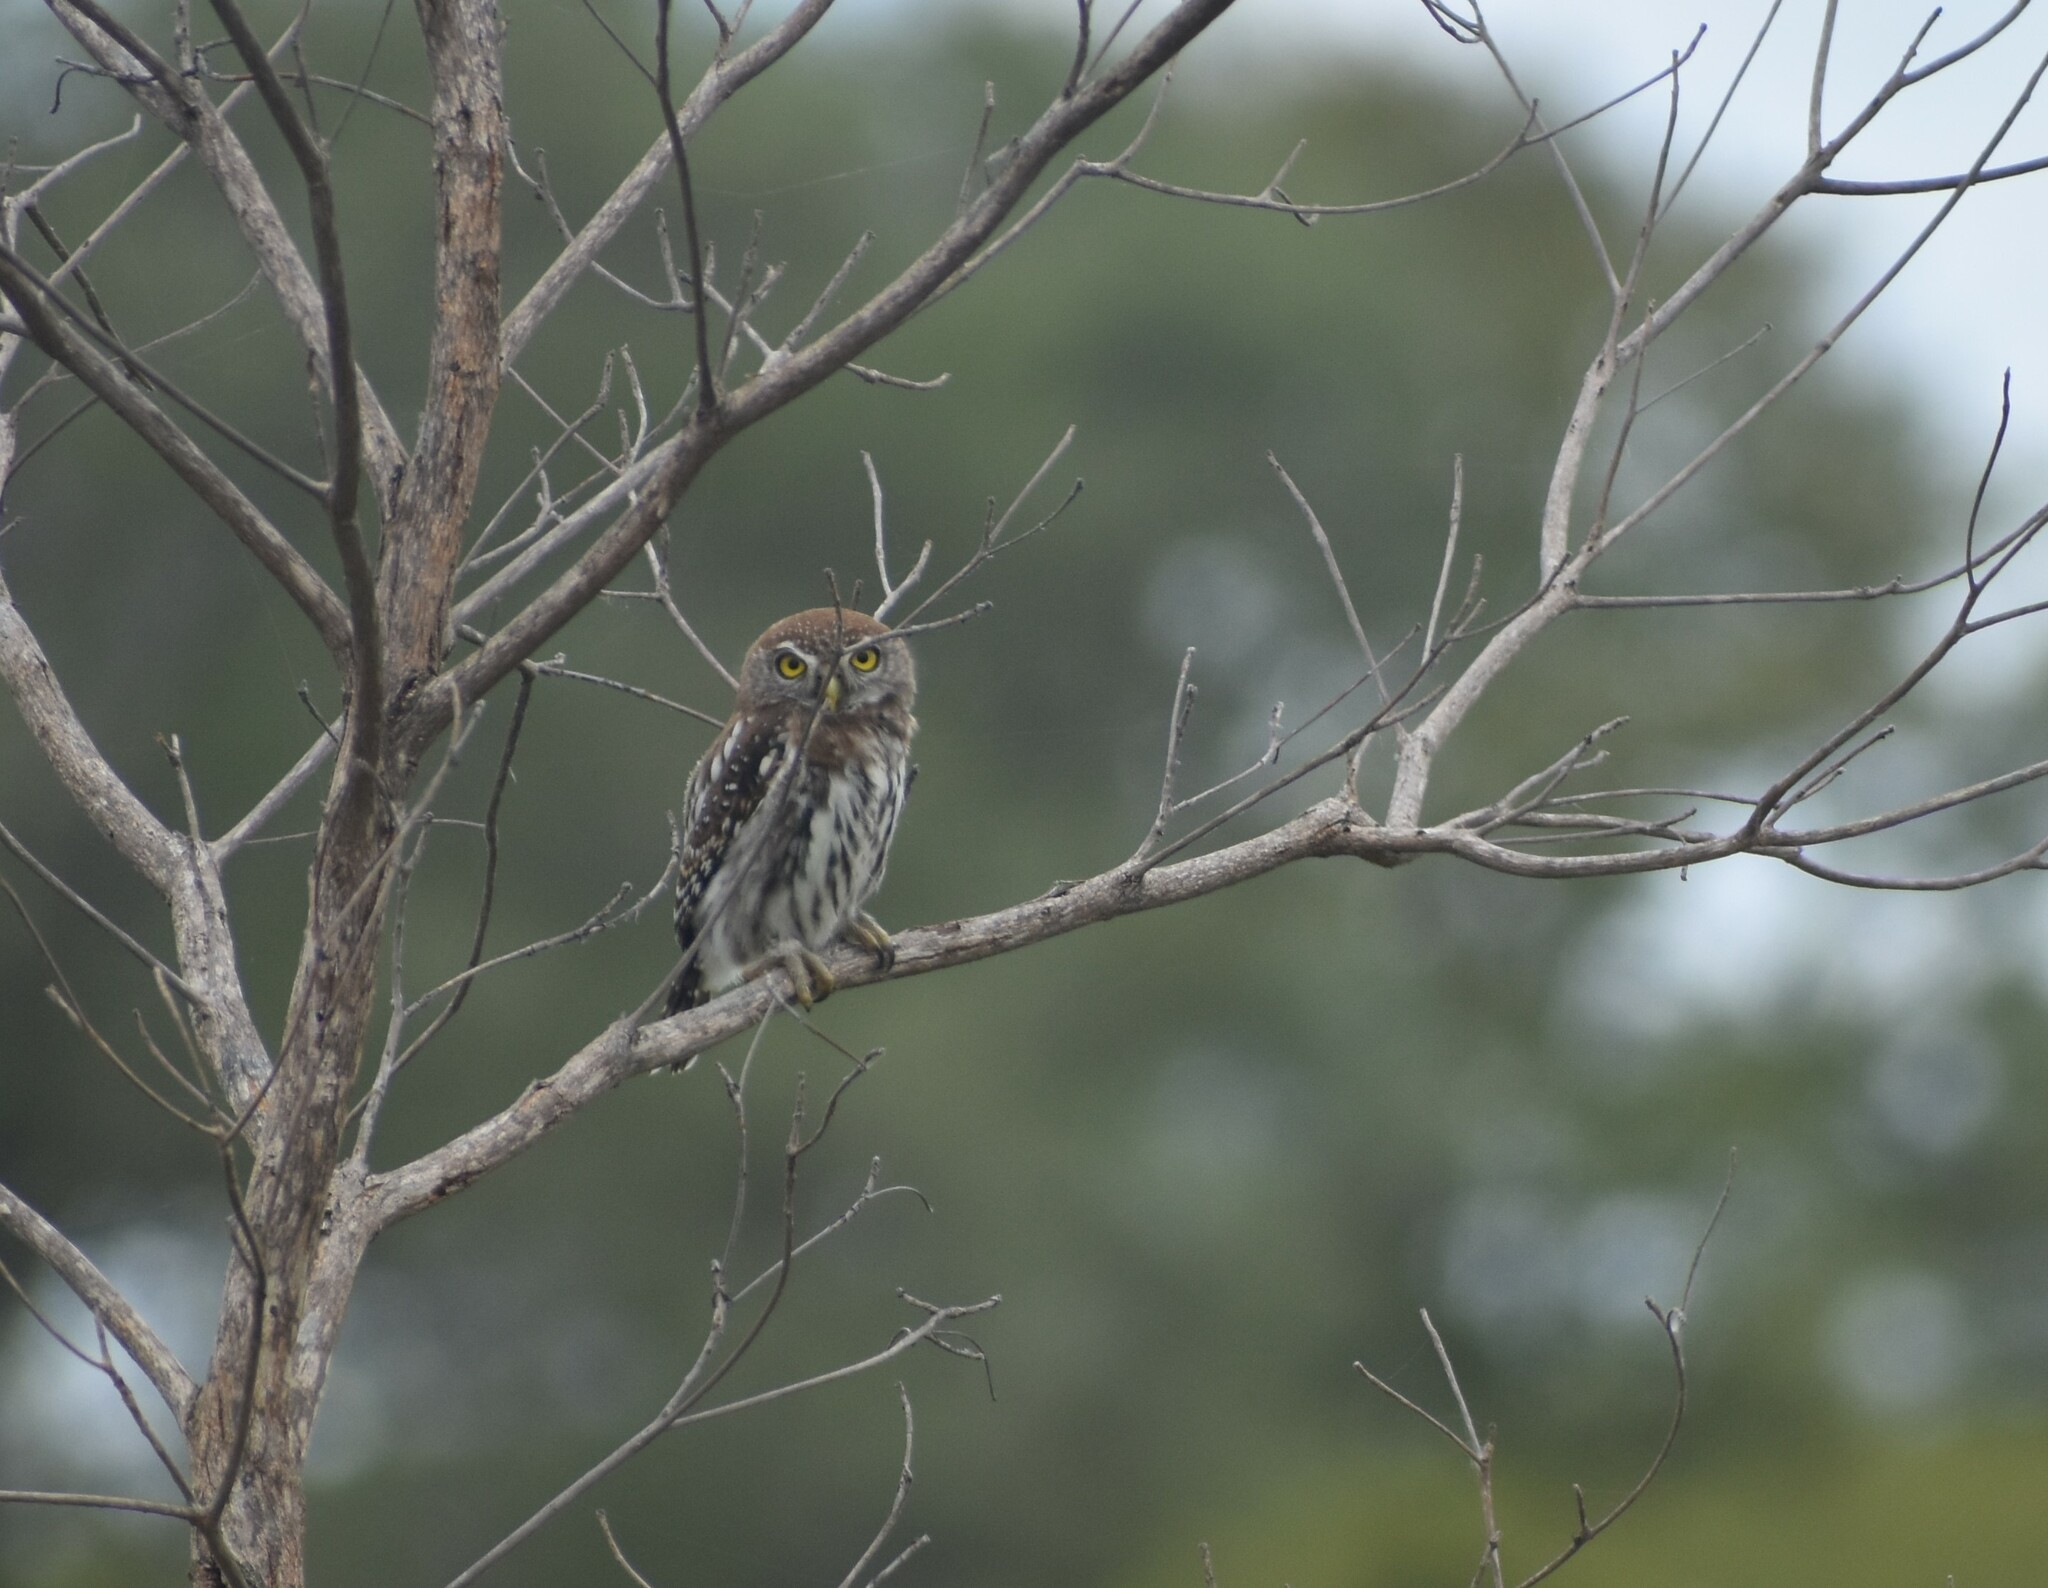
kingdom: Animalia
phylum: Chordata
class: Aves
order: Strigiformes
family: Strigidae
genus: Glaucidium
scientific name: Glaucidium perlatum
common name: Pearl-spotted owlet
